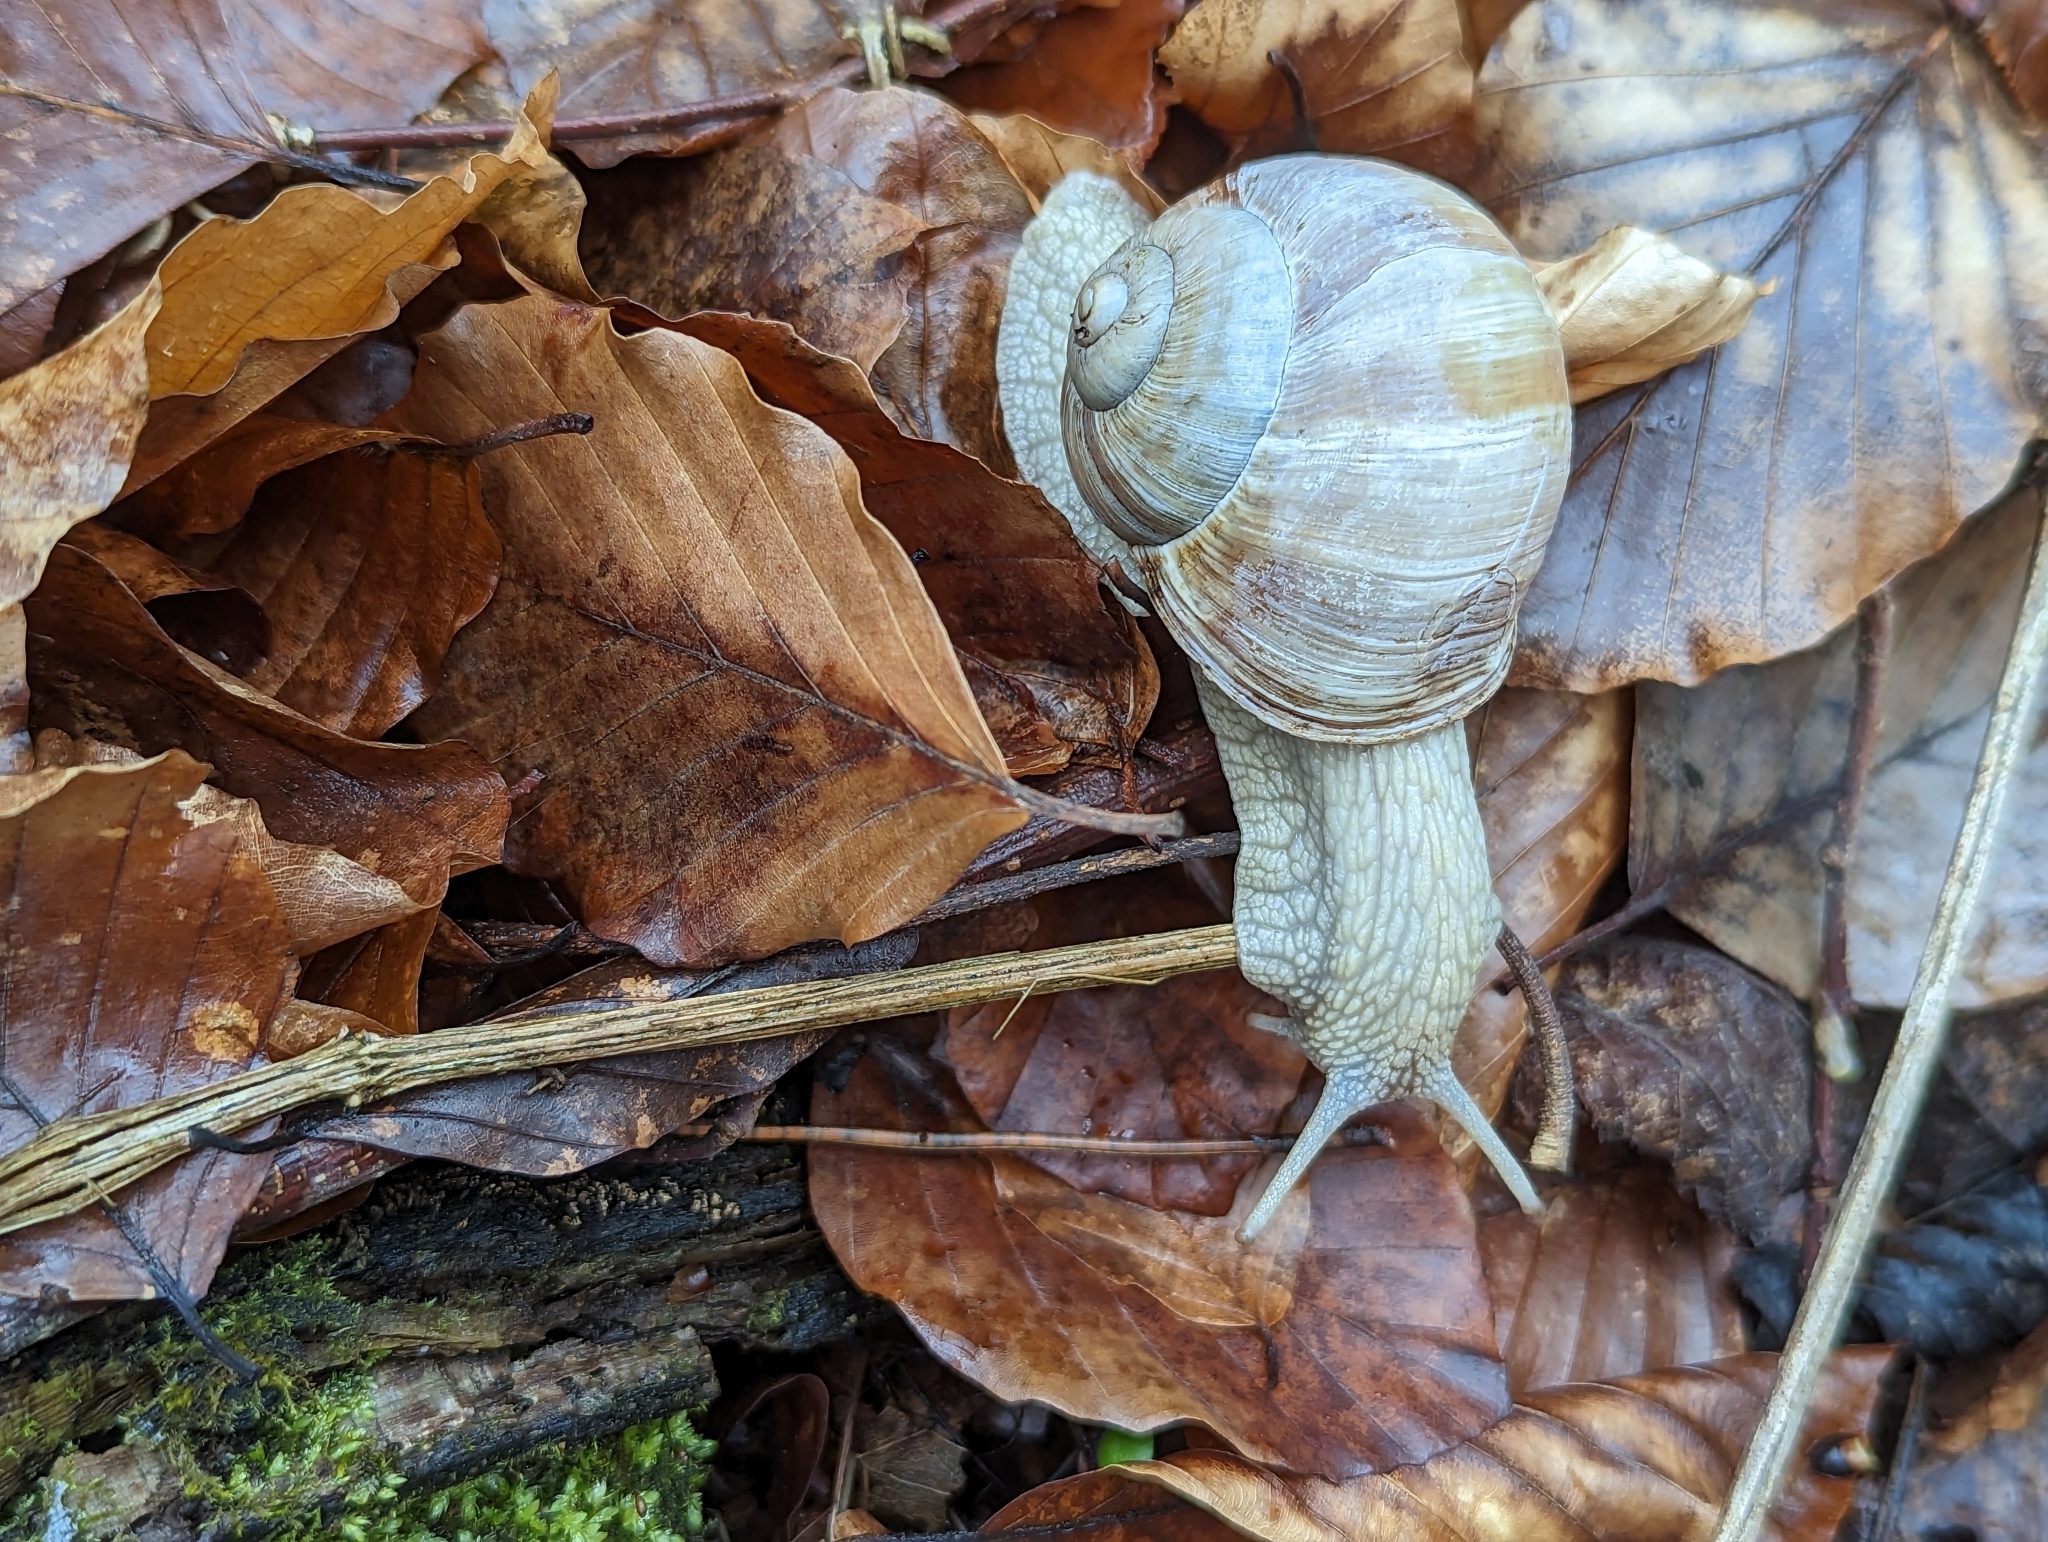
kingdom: Animalia
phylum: Mollusca
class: Gastropoda
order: Stylommatophora
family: Helicidae
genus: Helix
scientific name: Helix pomatia
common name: Roman snail
